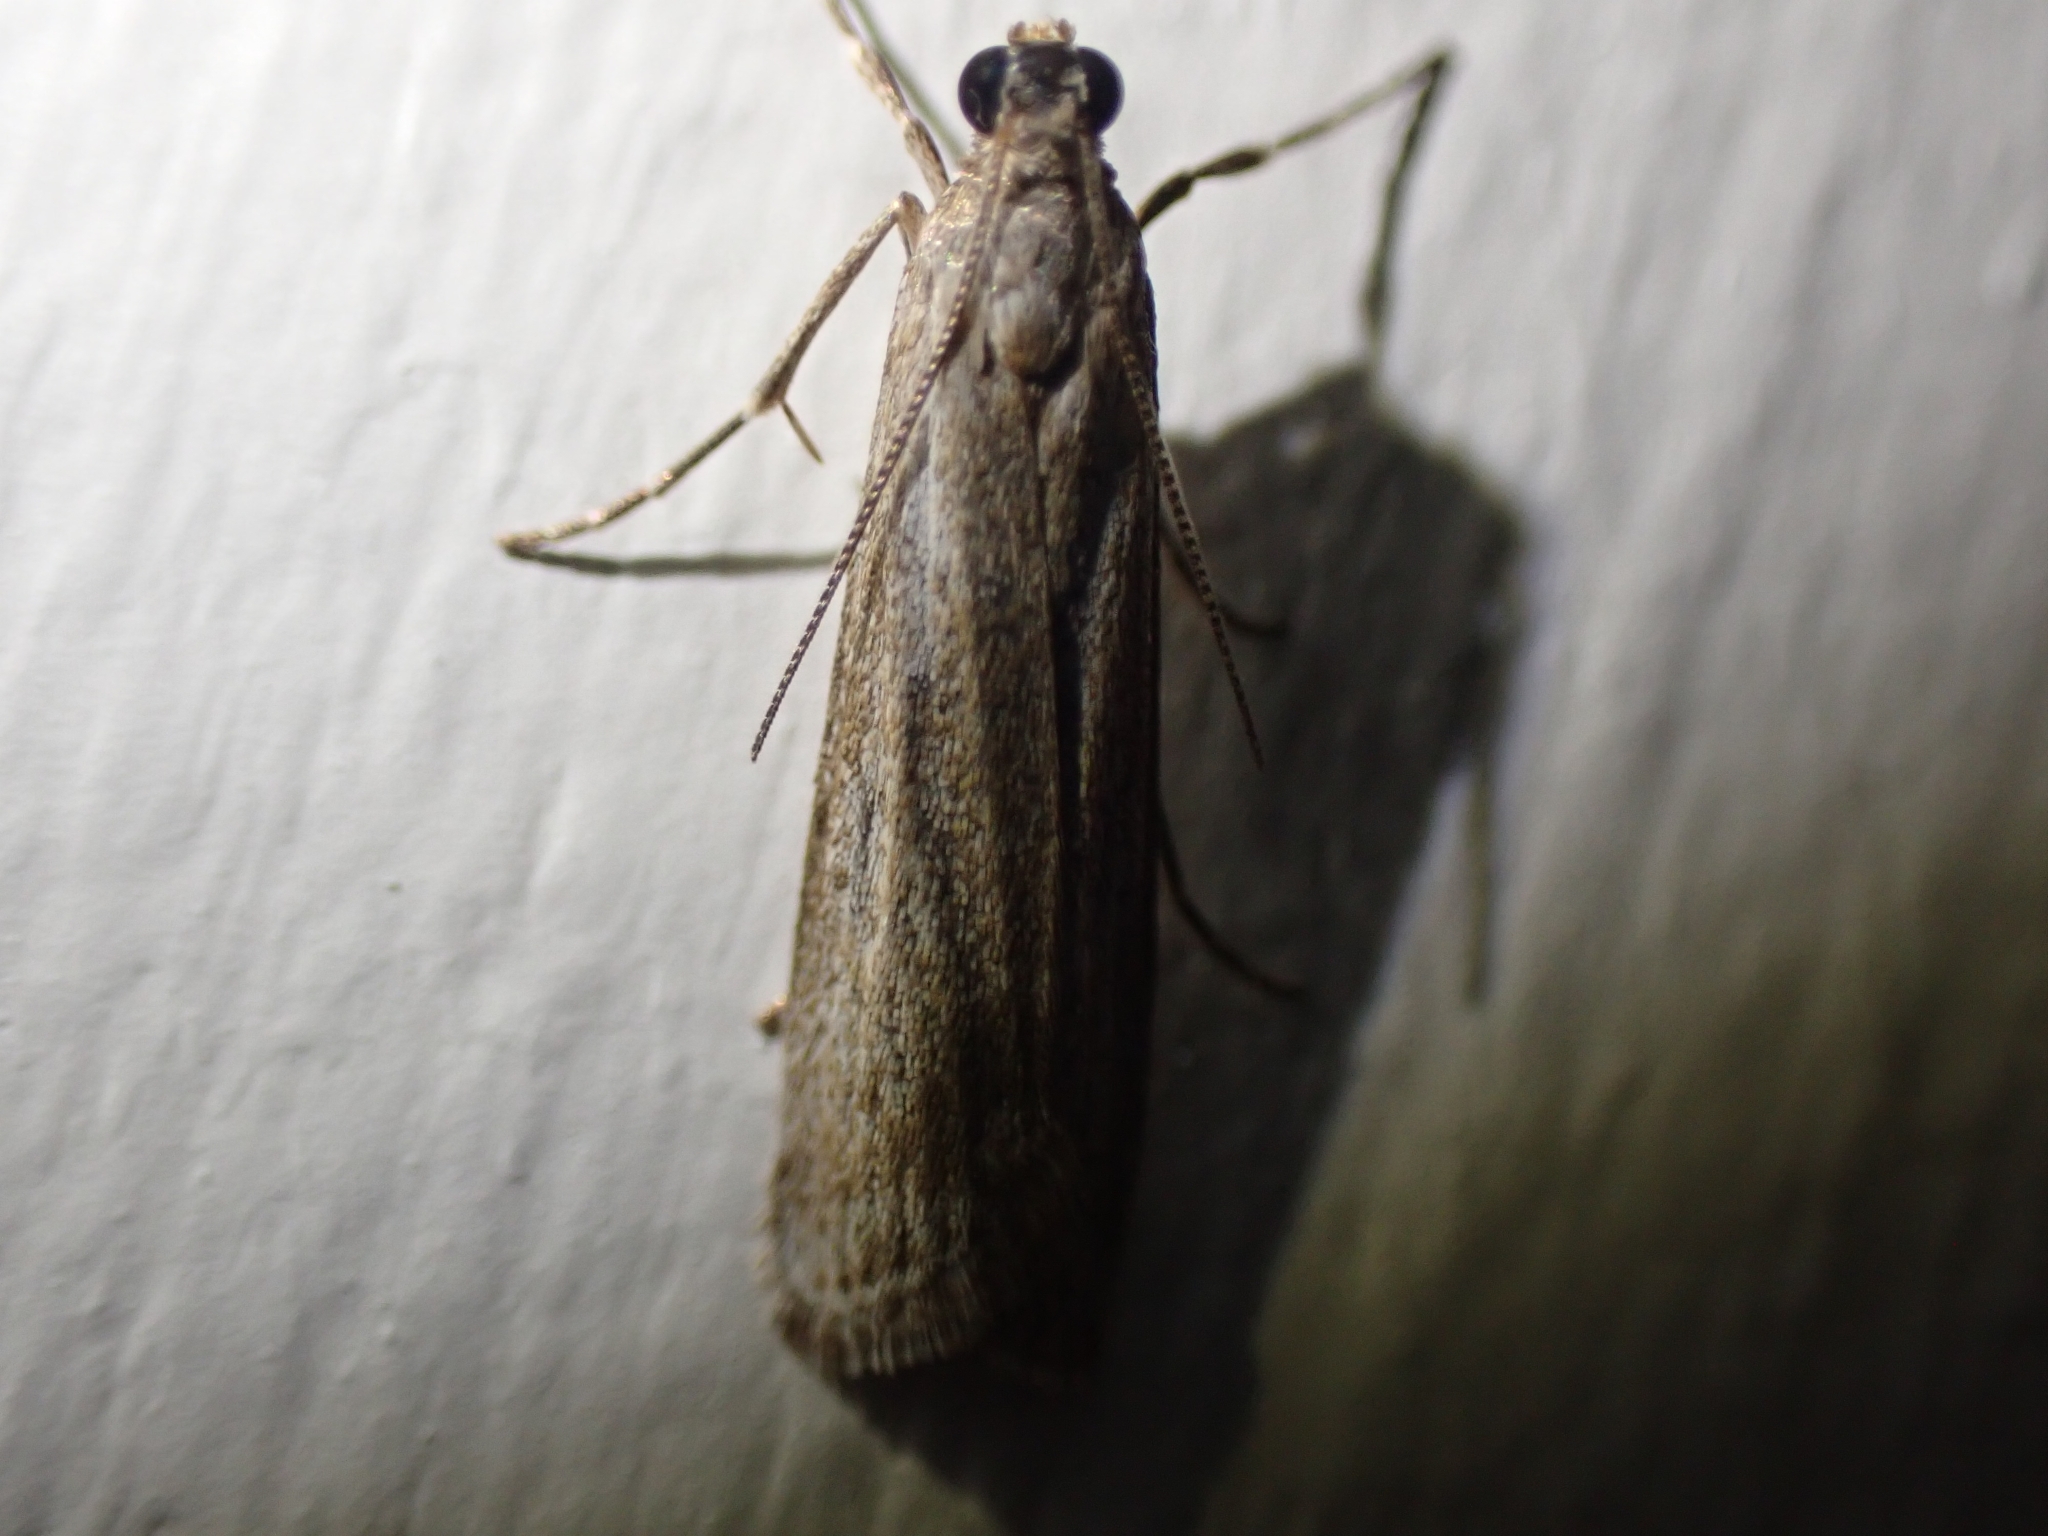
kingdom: Animalia
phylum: Arthropoda
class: Insecta
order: Lepidoptera
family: Crambidae
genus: Eudonia
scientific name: Eudonia leptalea
